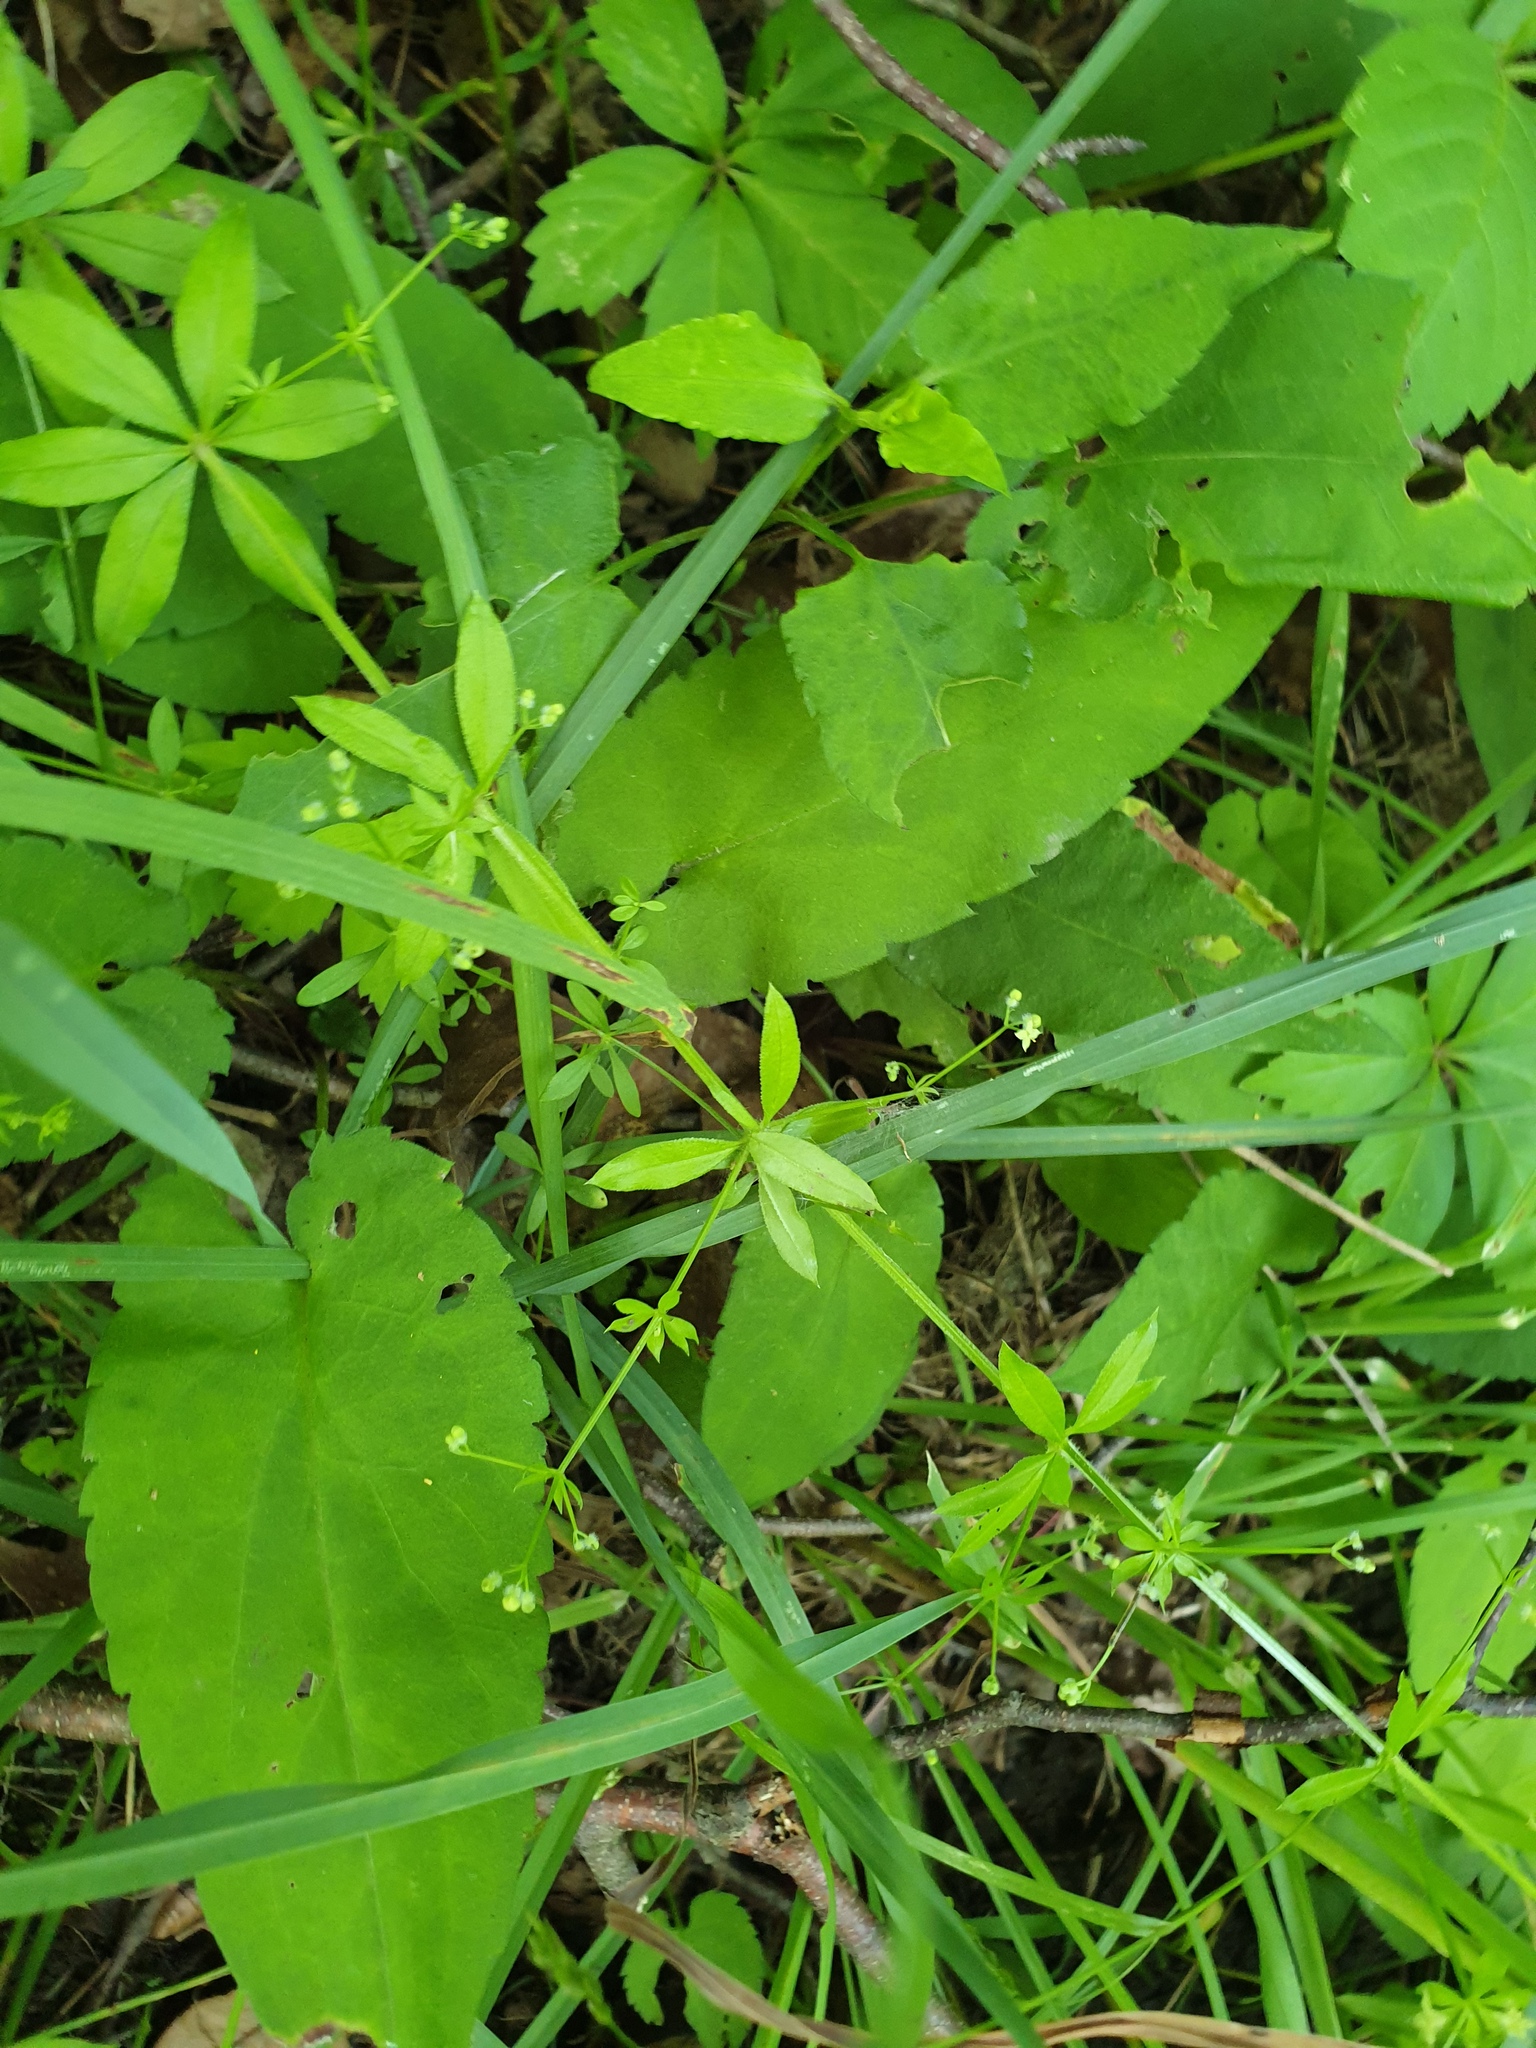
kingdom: Plantae
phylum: Tracheophyta
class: Magnoliopsida
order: Gentianales
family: Rubiaceae
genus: Galium
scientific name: Galium triflorum
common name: Fragrant bedstraw
